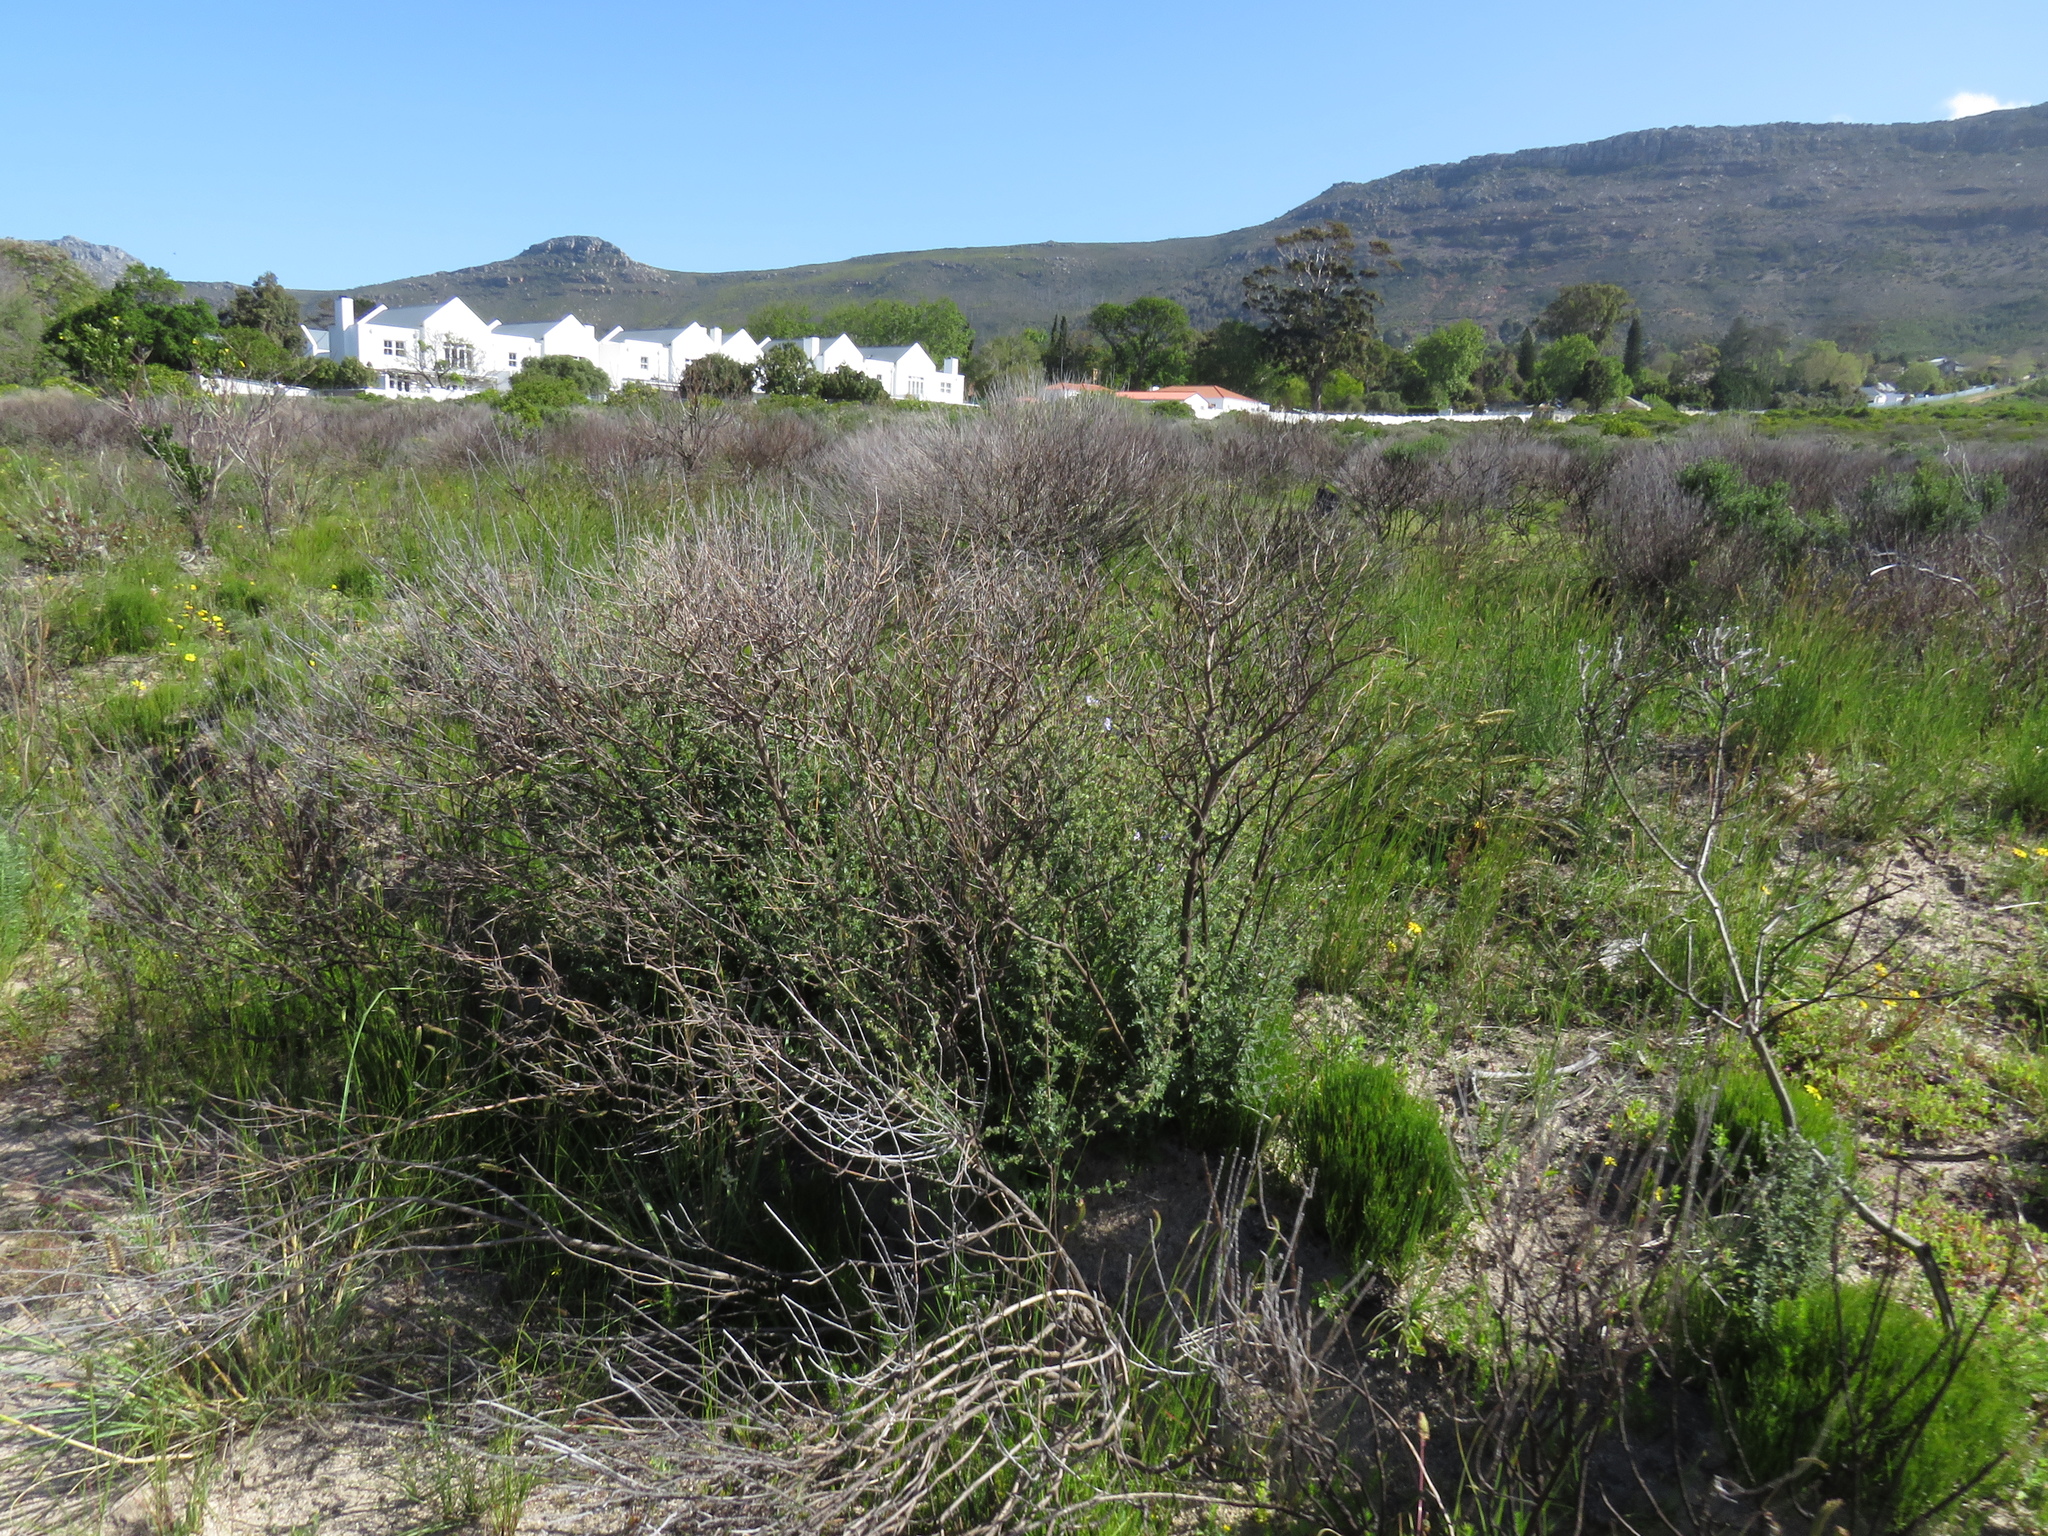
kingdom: Plantae
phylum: Tracheophyta
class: Magnoliopsida
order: Lamiales
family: Lamiaceae
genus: Salvia
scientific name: Salvia africana
